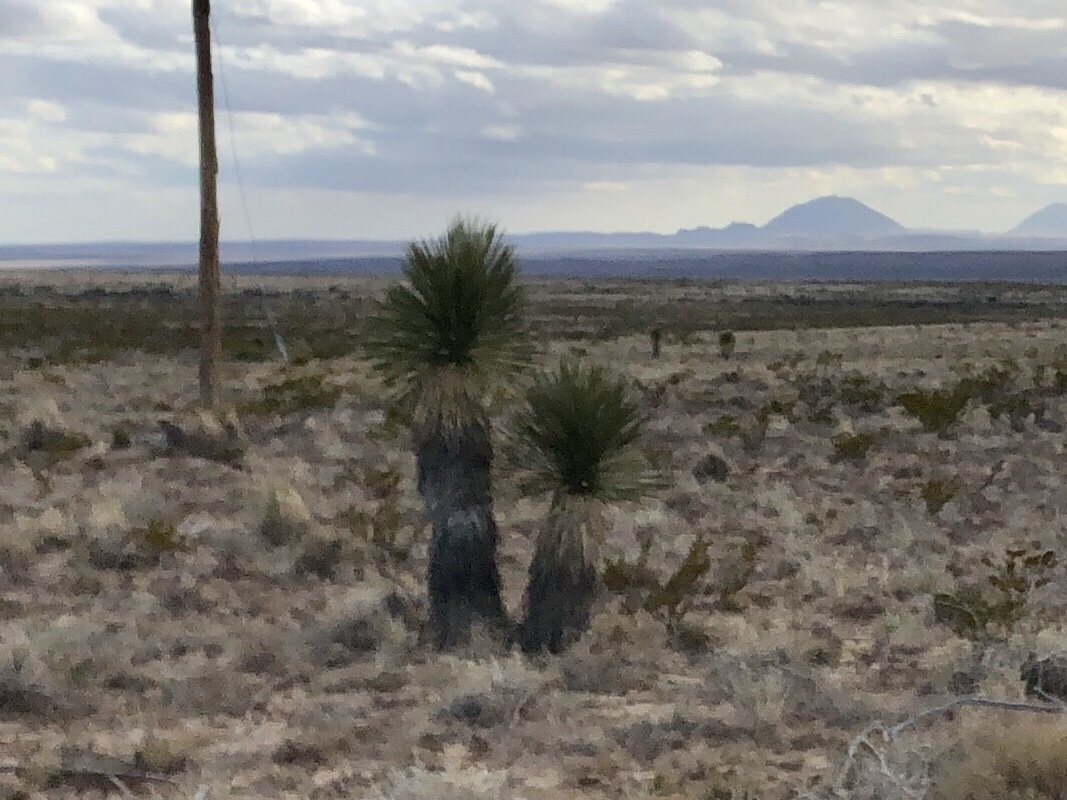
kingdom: Plantae
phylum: Tracheophyta
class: Liliopsida
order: Asparagales
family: Asparagaceae
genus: Yucca
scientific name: Yucca elata
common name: Palmella
